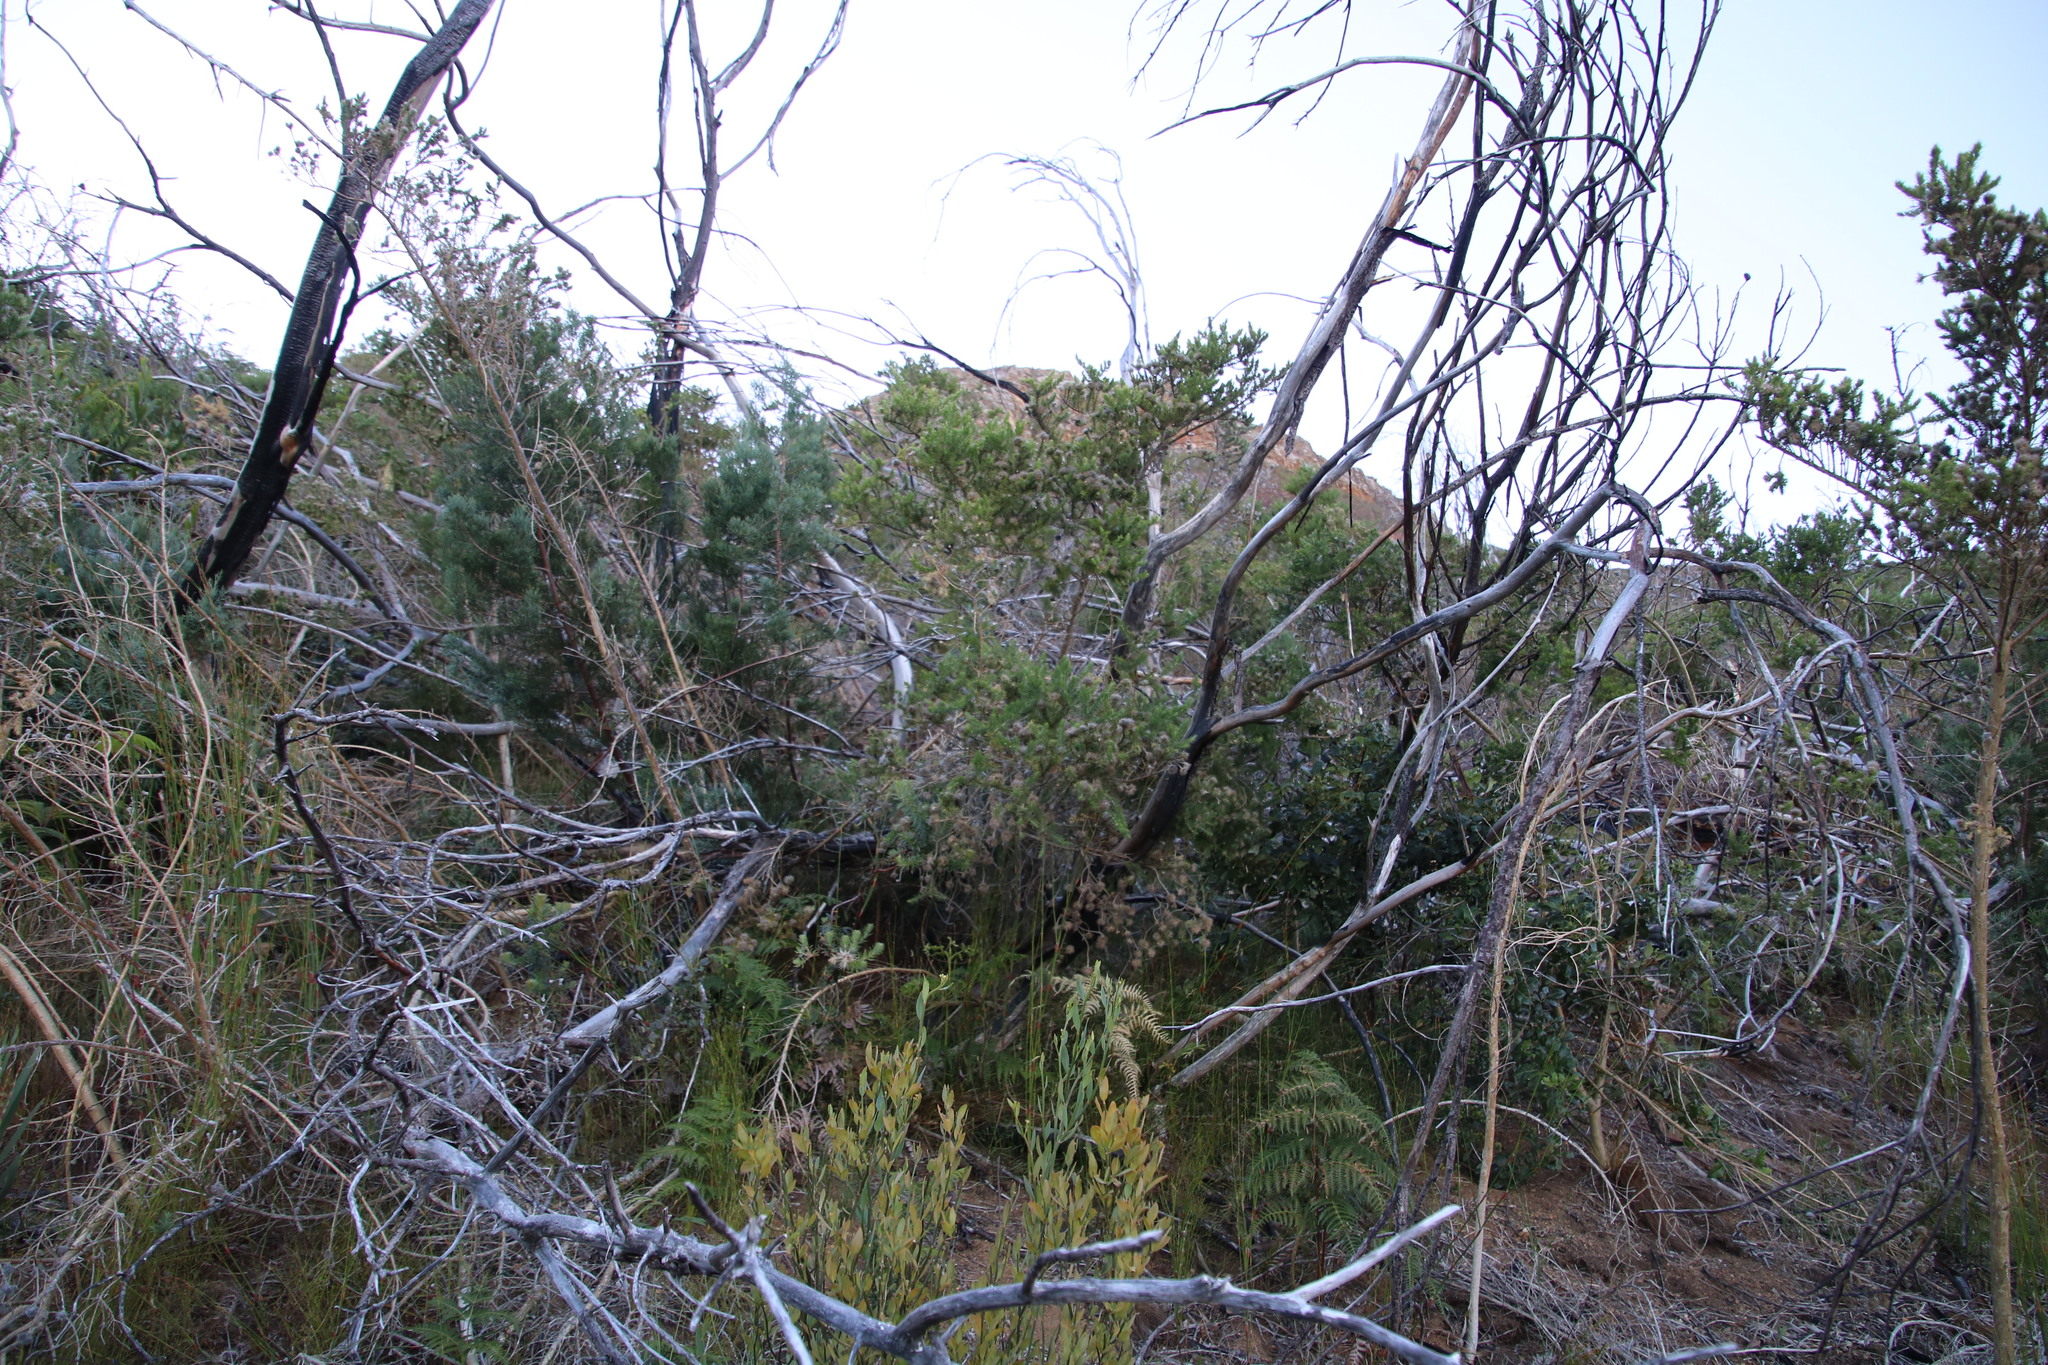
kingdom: Plantae
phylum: Tracheophyta
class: Magnoliopsida
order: Fabales
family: Fabaceae
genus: Aspalathus
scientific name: Aspalathus chenopoda
